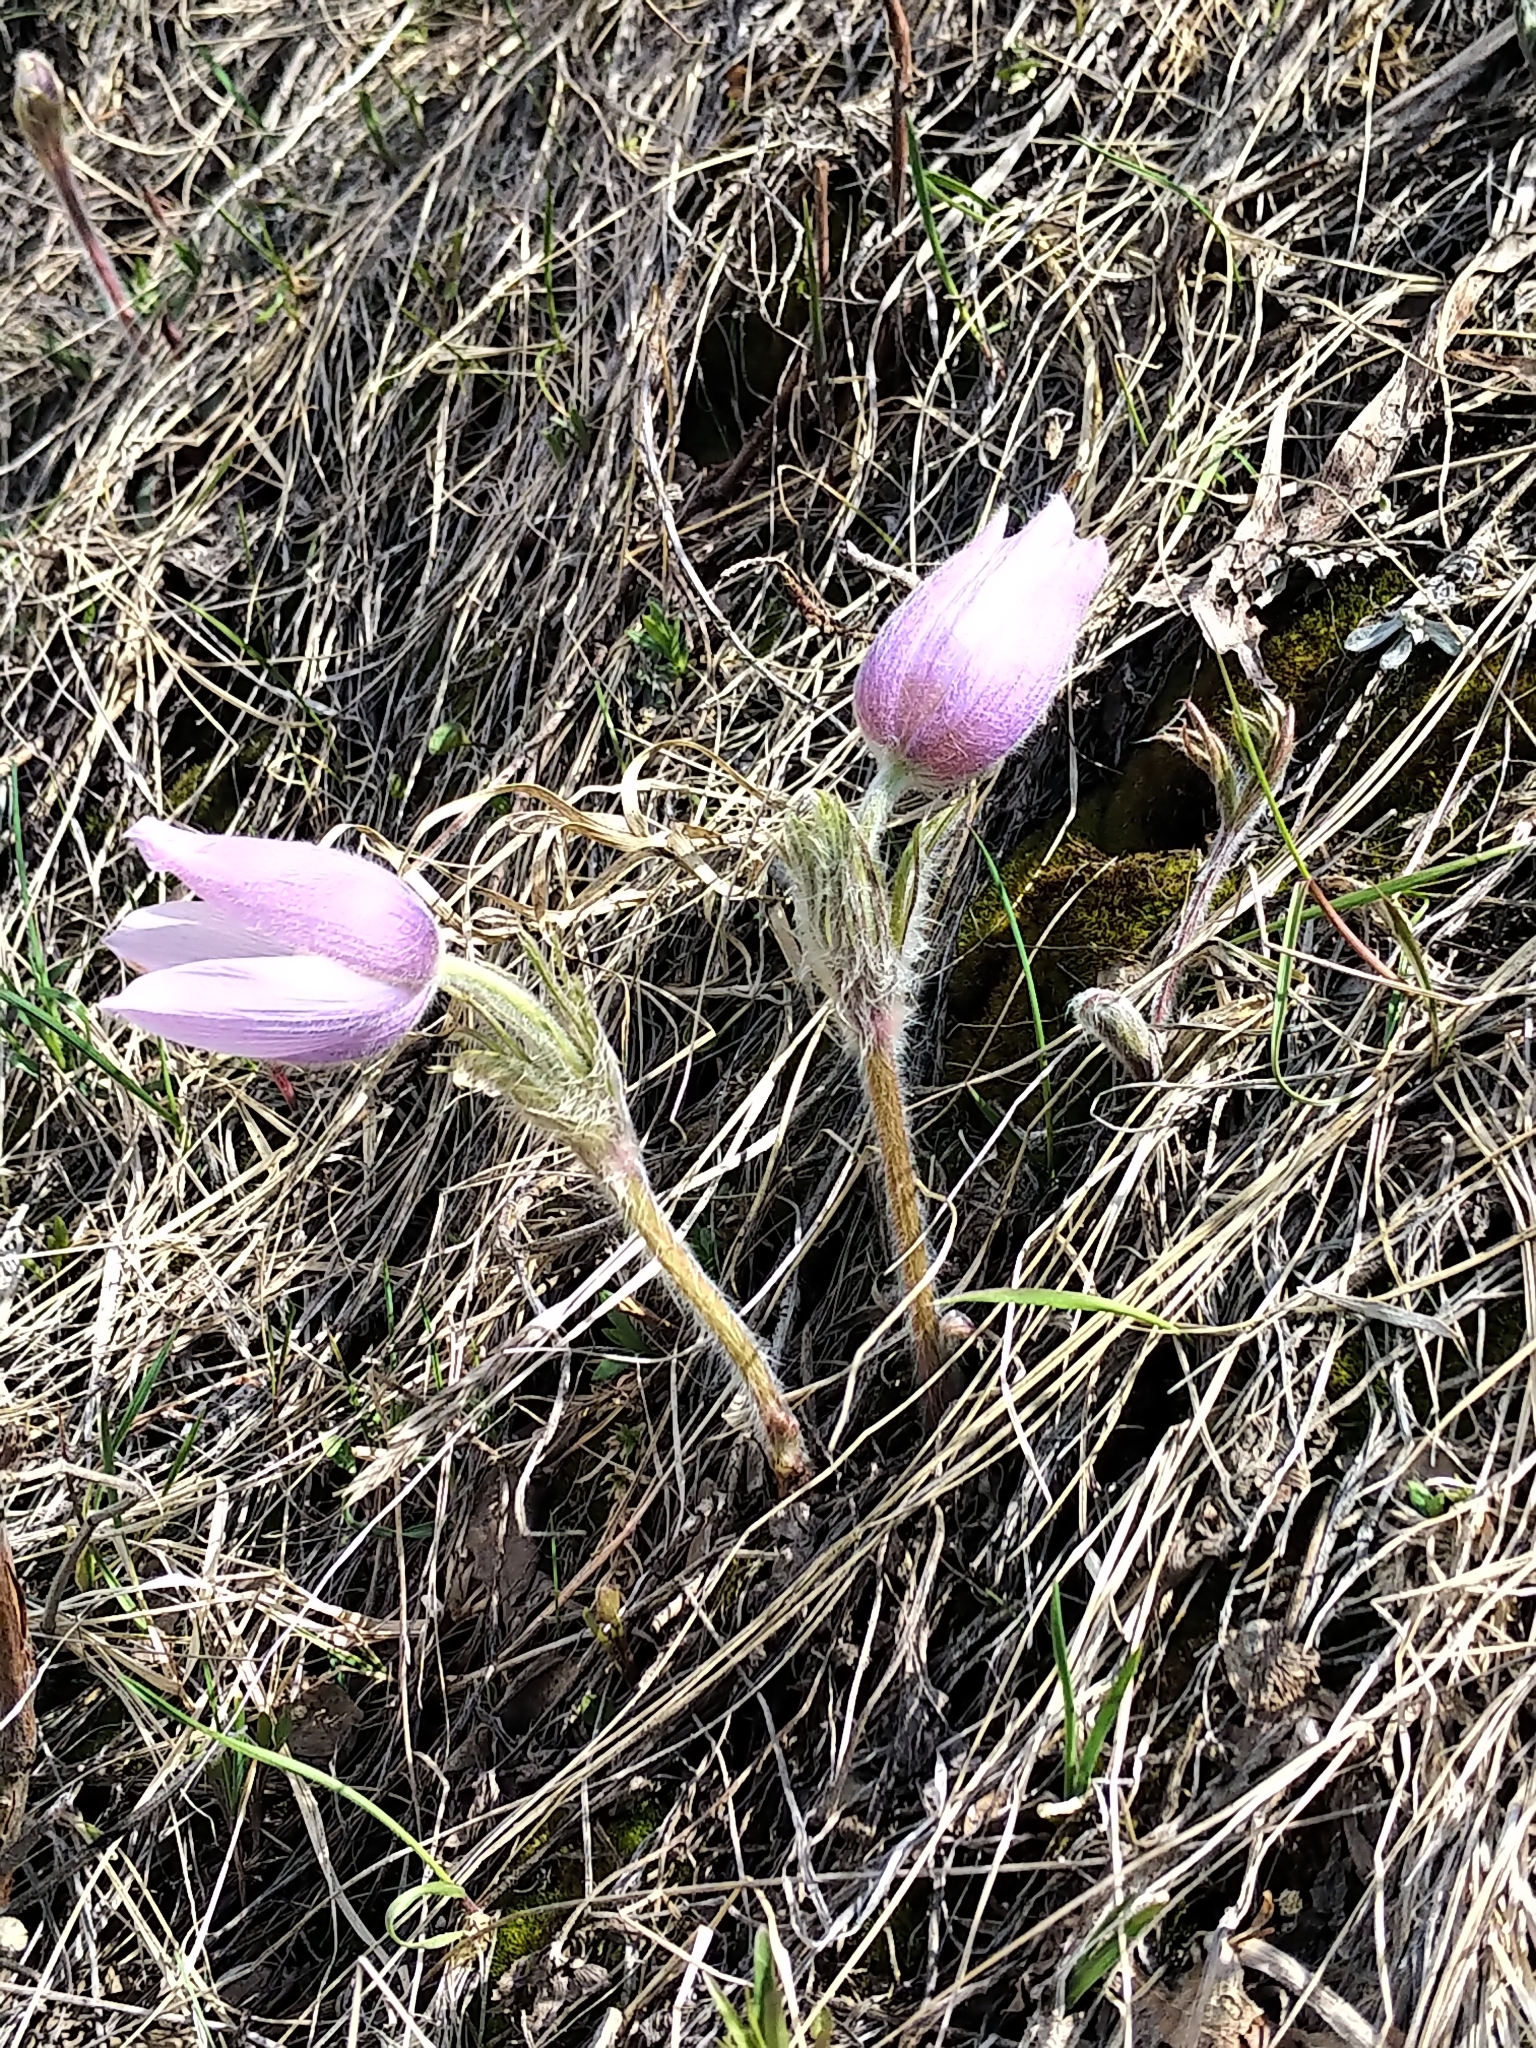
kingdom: Plantae
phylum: Tracheophyta
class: Magnoliopsida
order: Ranunculales
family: Ranunculaceae
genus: Pulsatilla
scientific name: Pulsatilla nuttalliana
